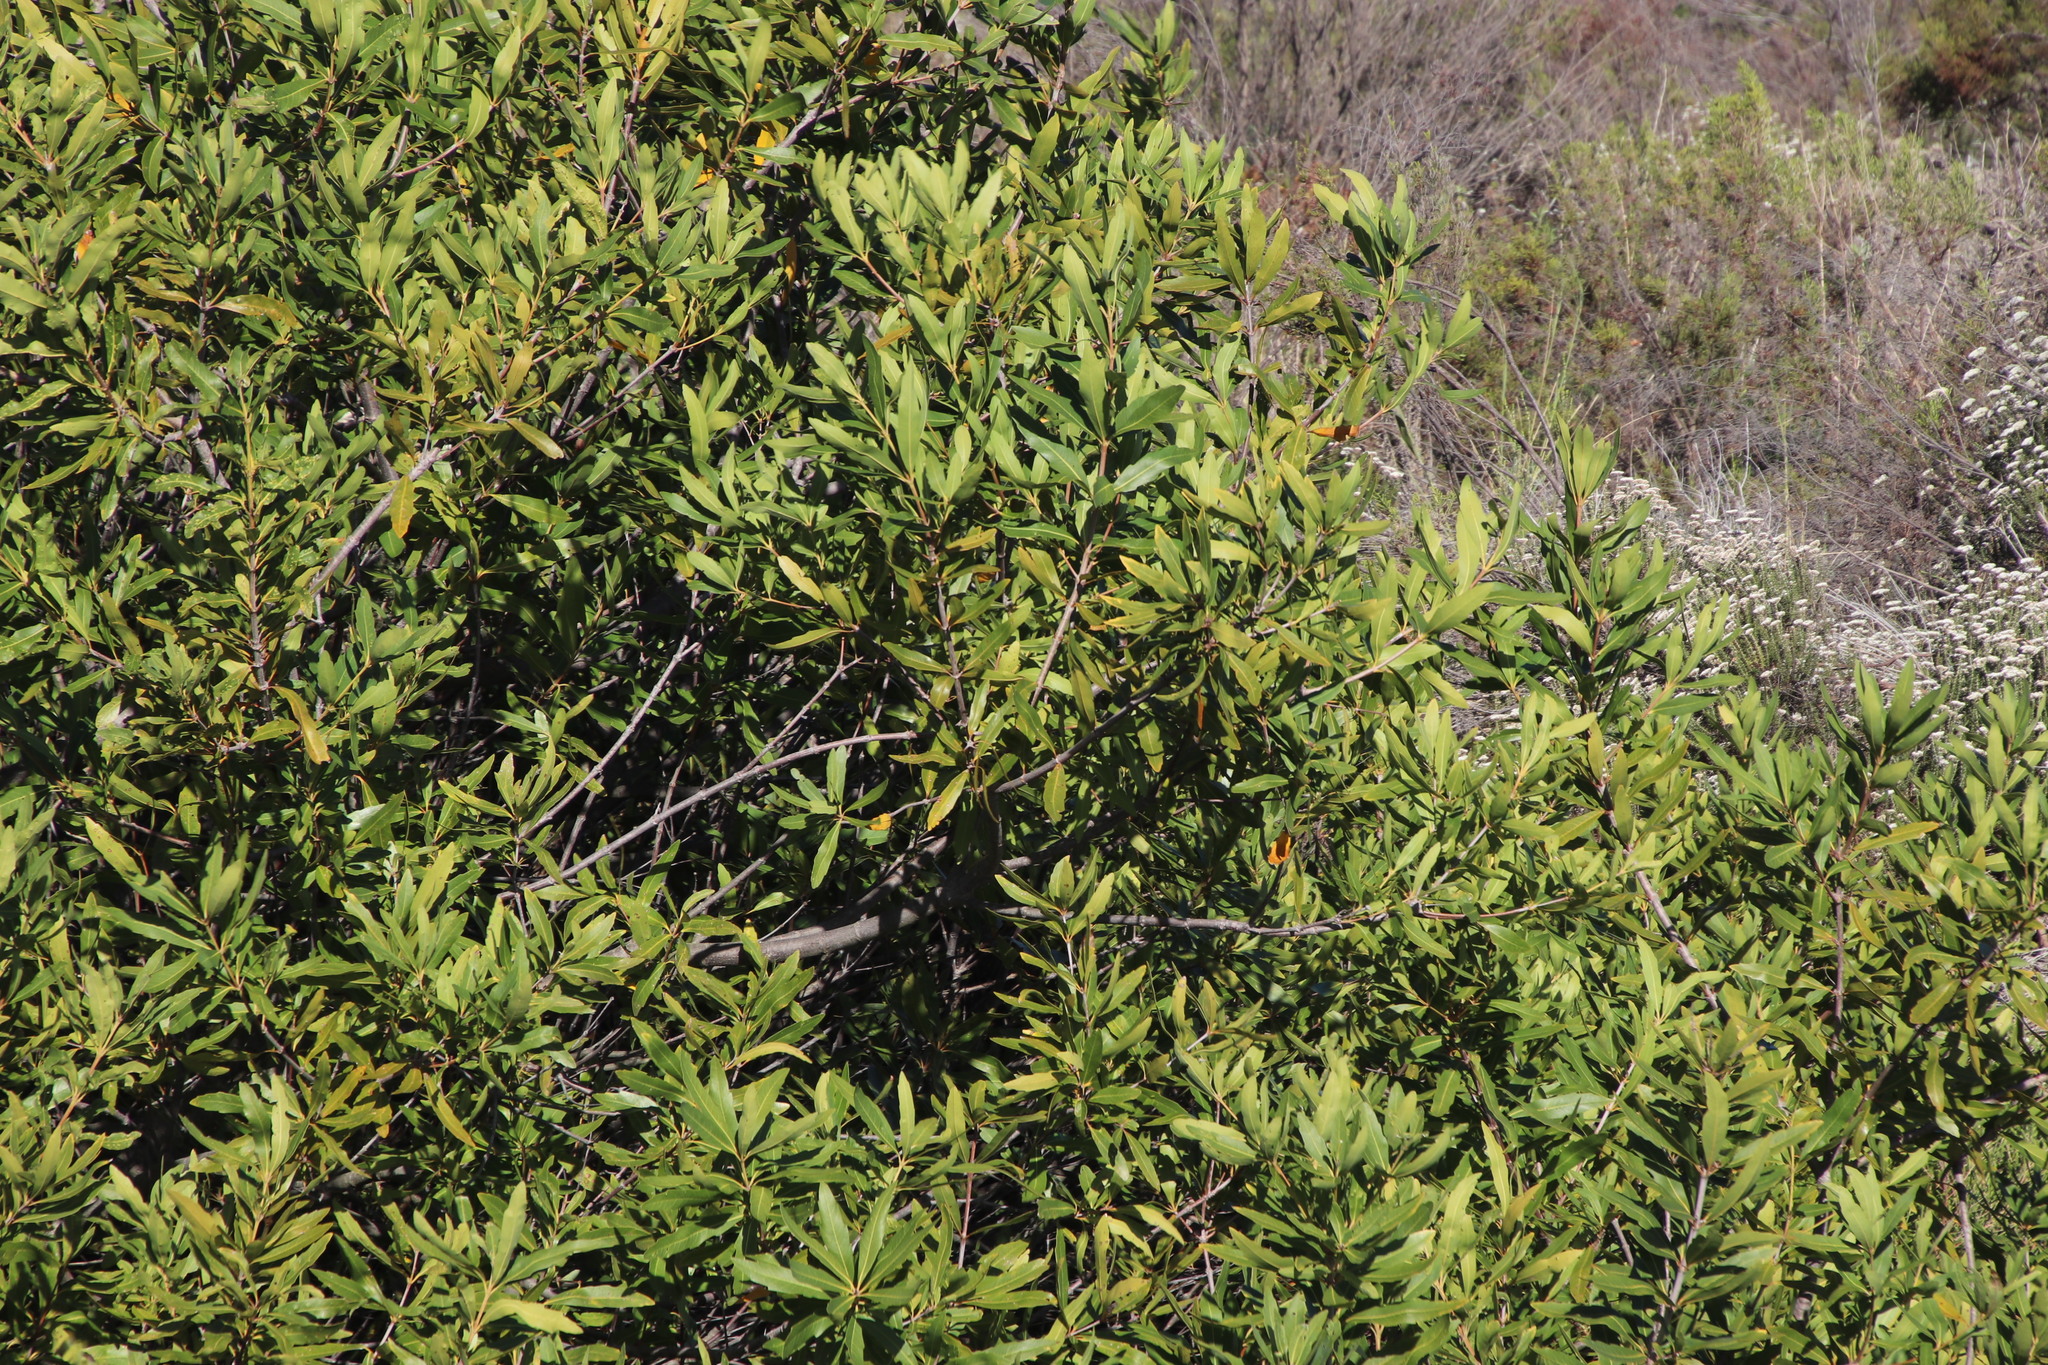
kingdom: Plantae
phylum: Tracheophyta
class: Magnoliopsida
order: Proteales
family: Proteaceae
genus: Brabejum
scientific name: Brabejum stellatifolium
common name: Wild almond
